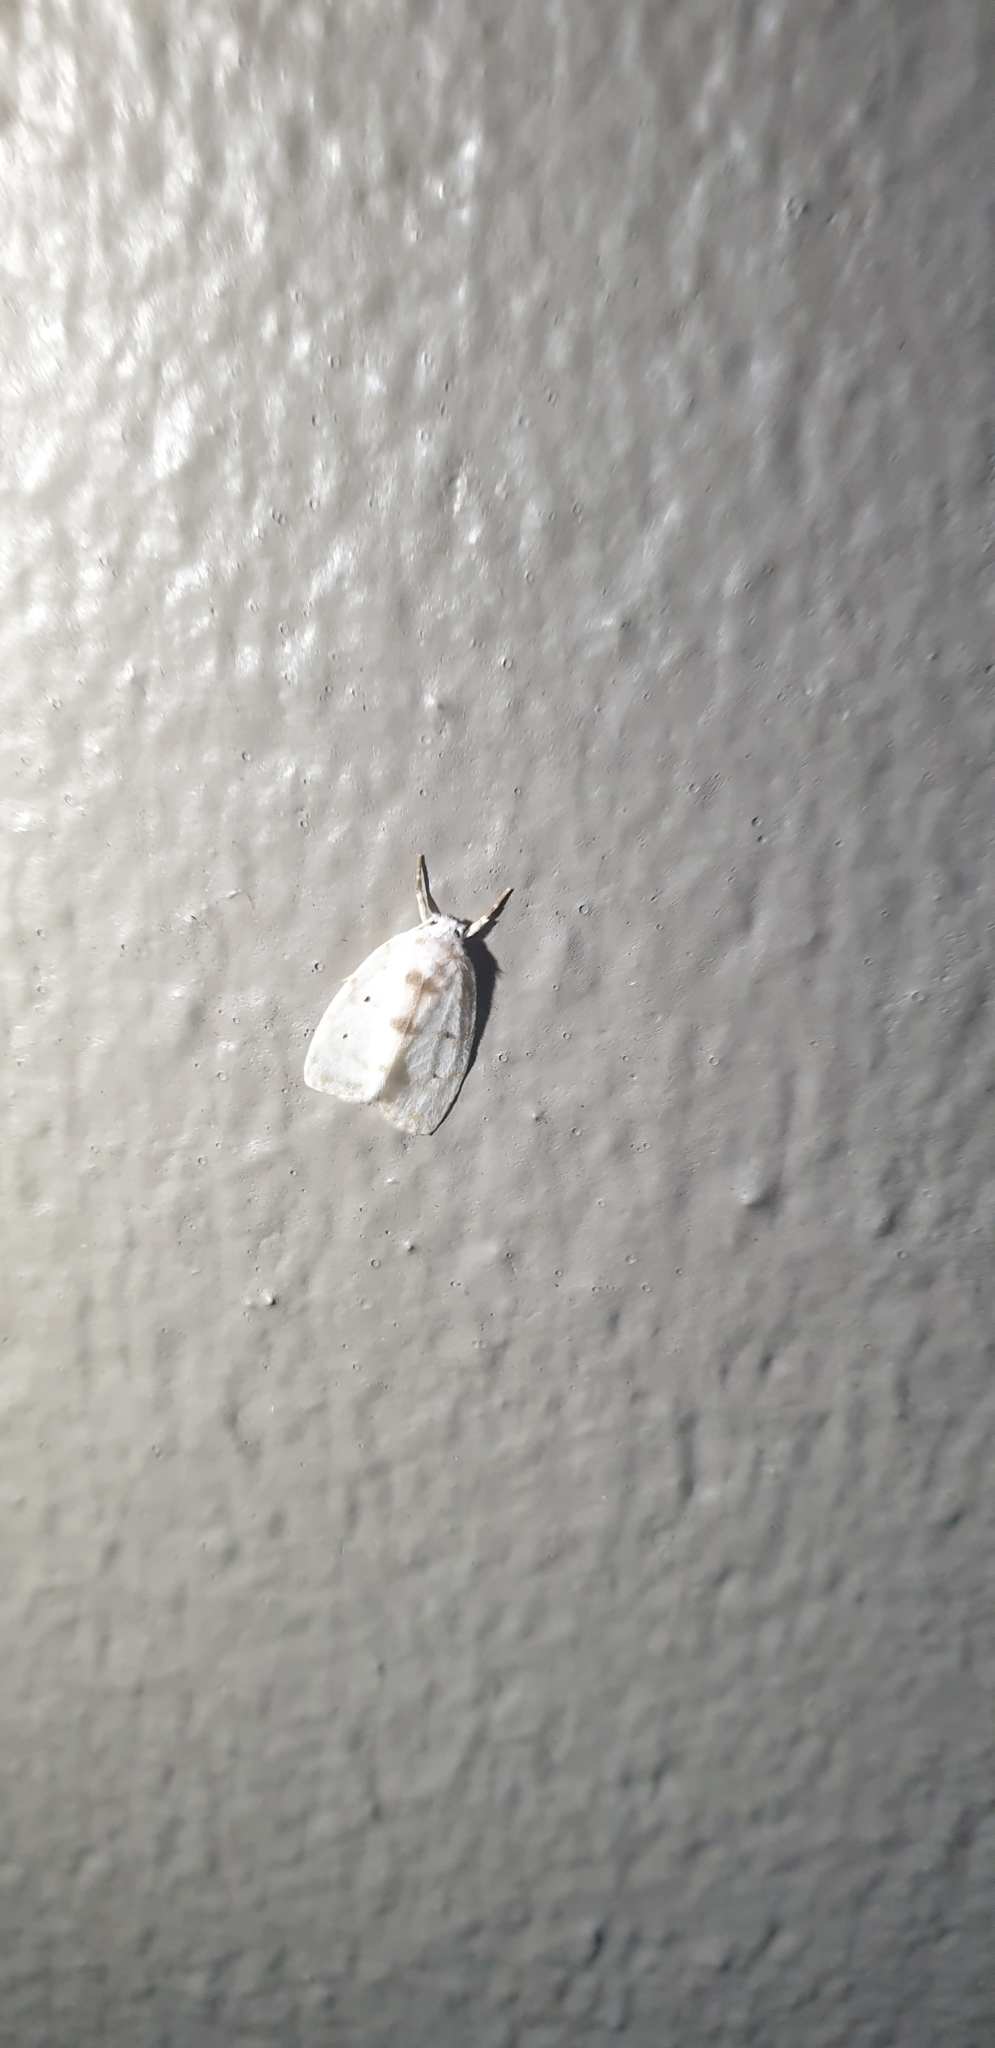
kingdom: Animalia
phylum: Arthropoda
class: Insecta
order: Lepidoptera
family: Erebidae
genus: Schistophleps
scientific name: Schistophleps albida
